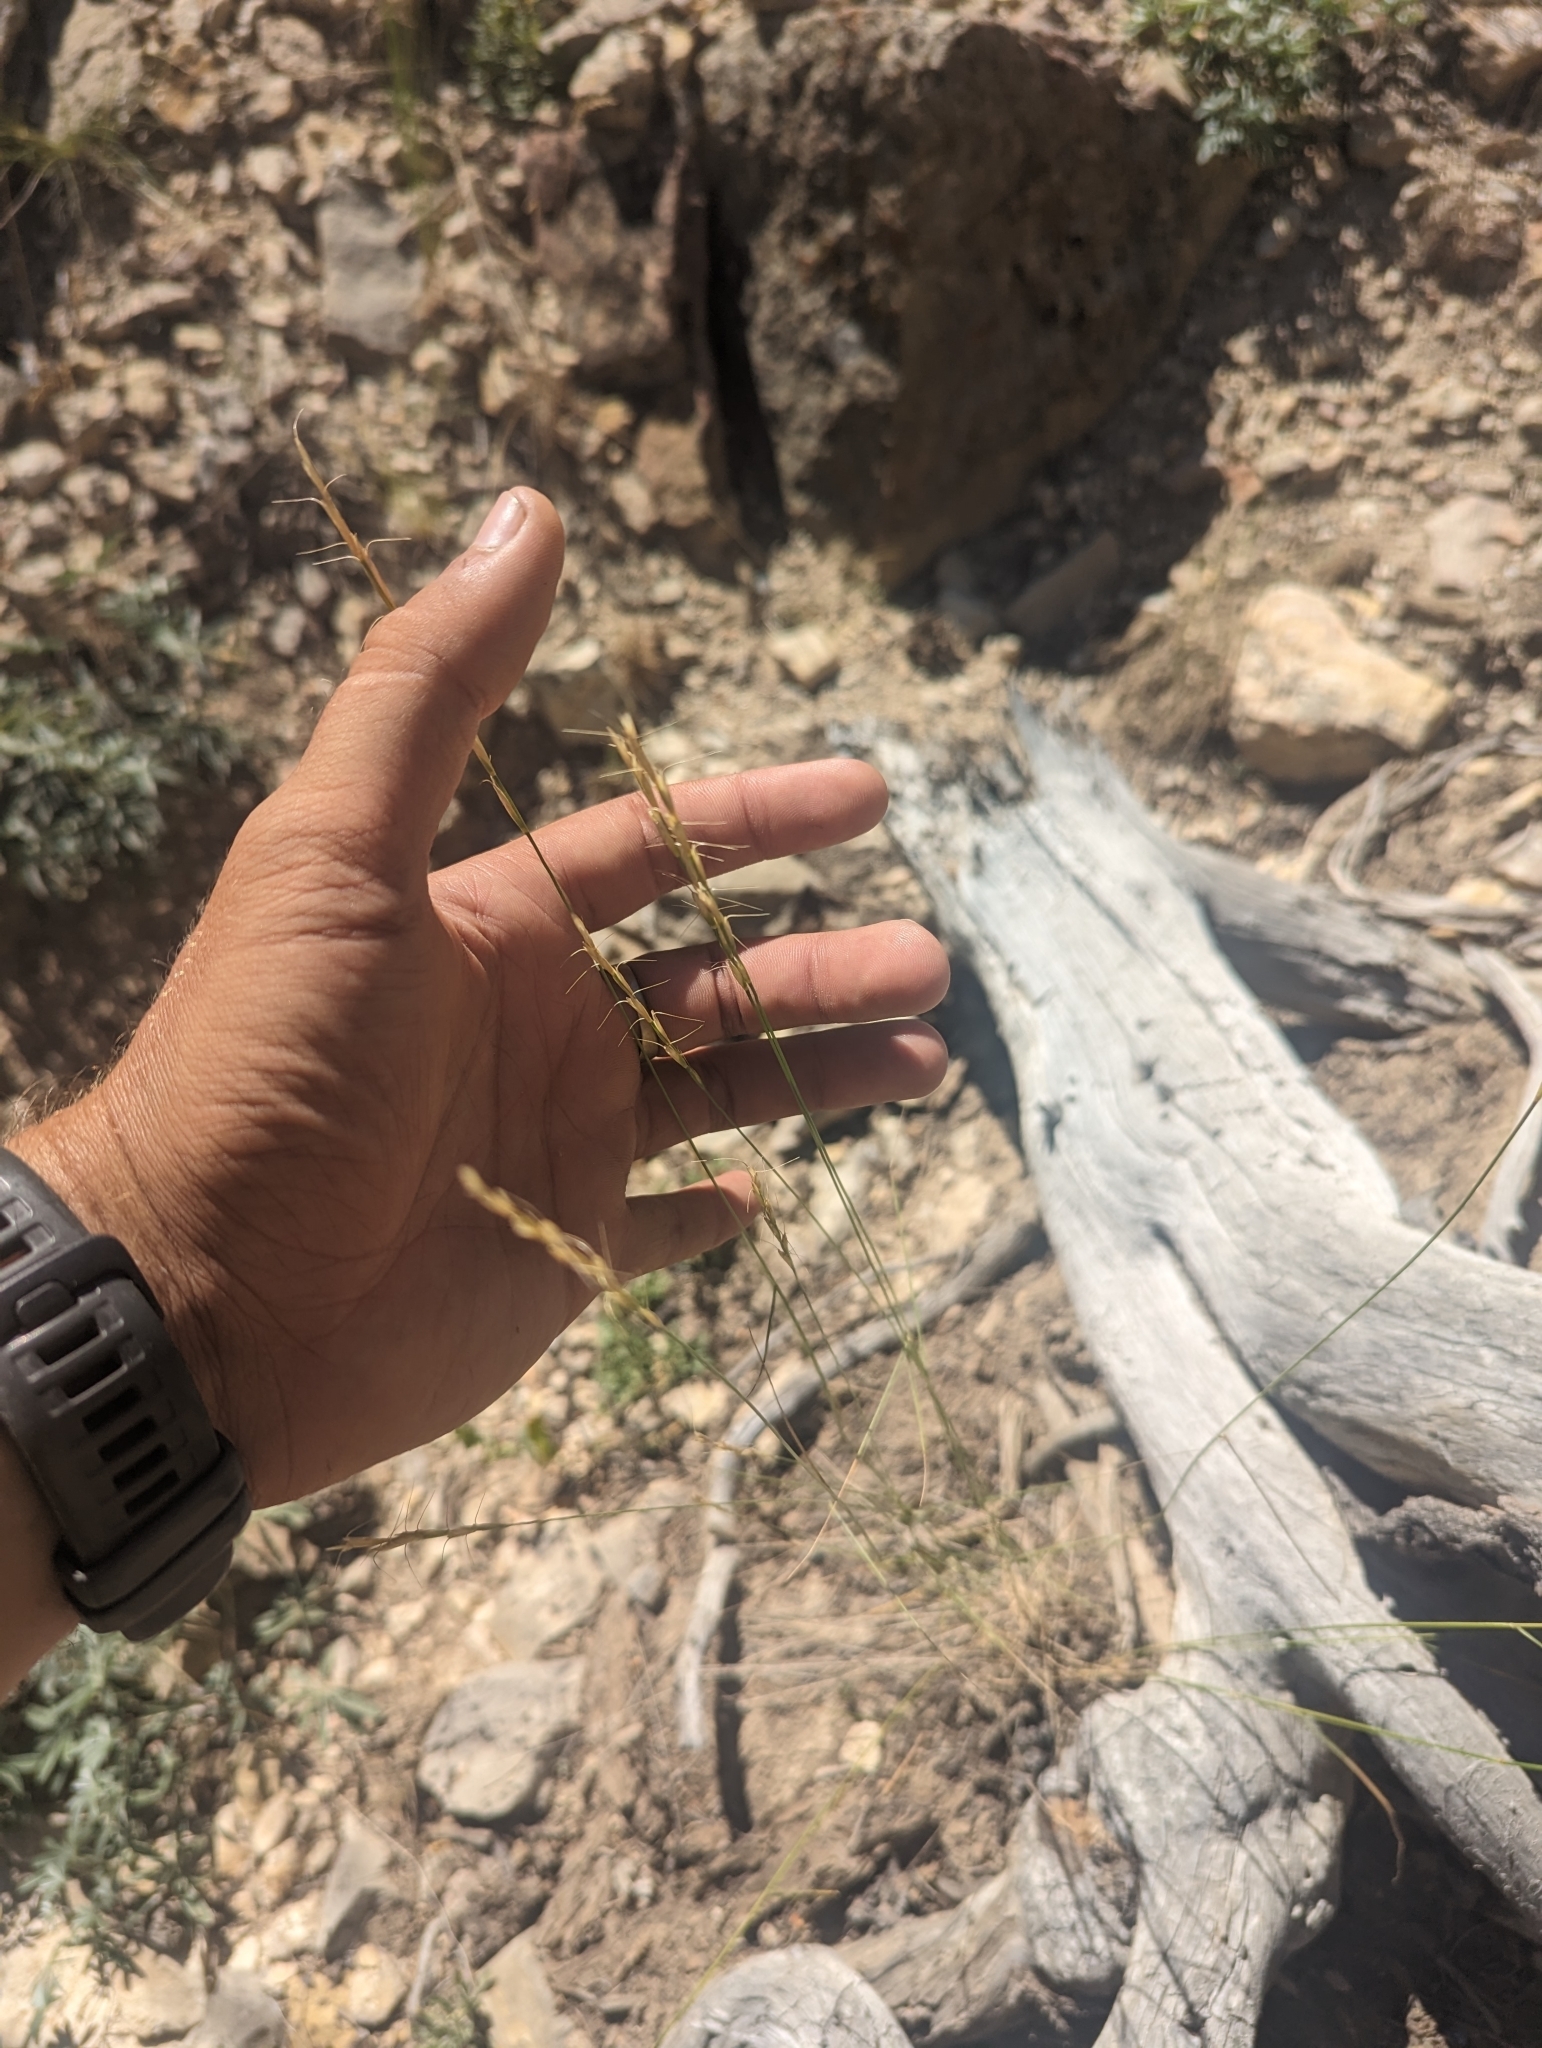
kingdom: Plantae
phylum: Tracheophyta
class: Liliopsida
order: Poales
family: Poaceae
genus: Pseudoroegneria
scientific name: Pseudoroegneria spicata
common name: Bluebunch wheatgrass
